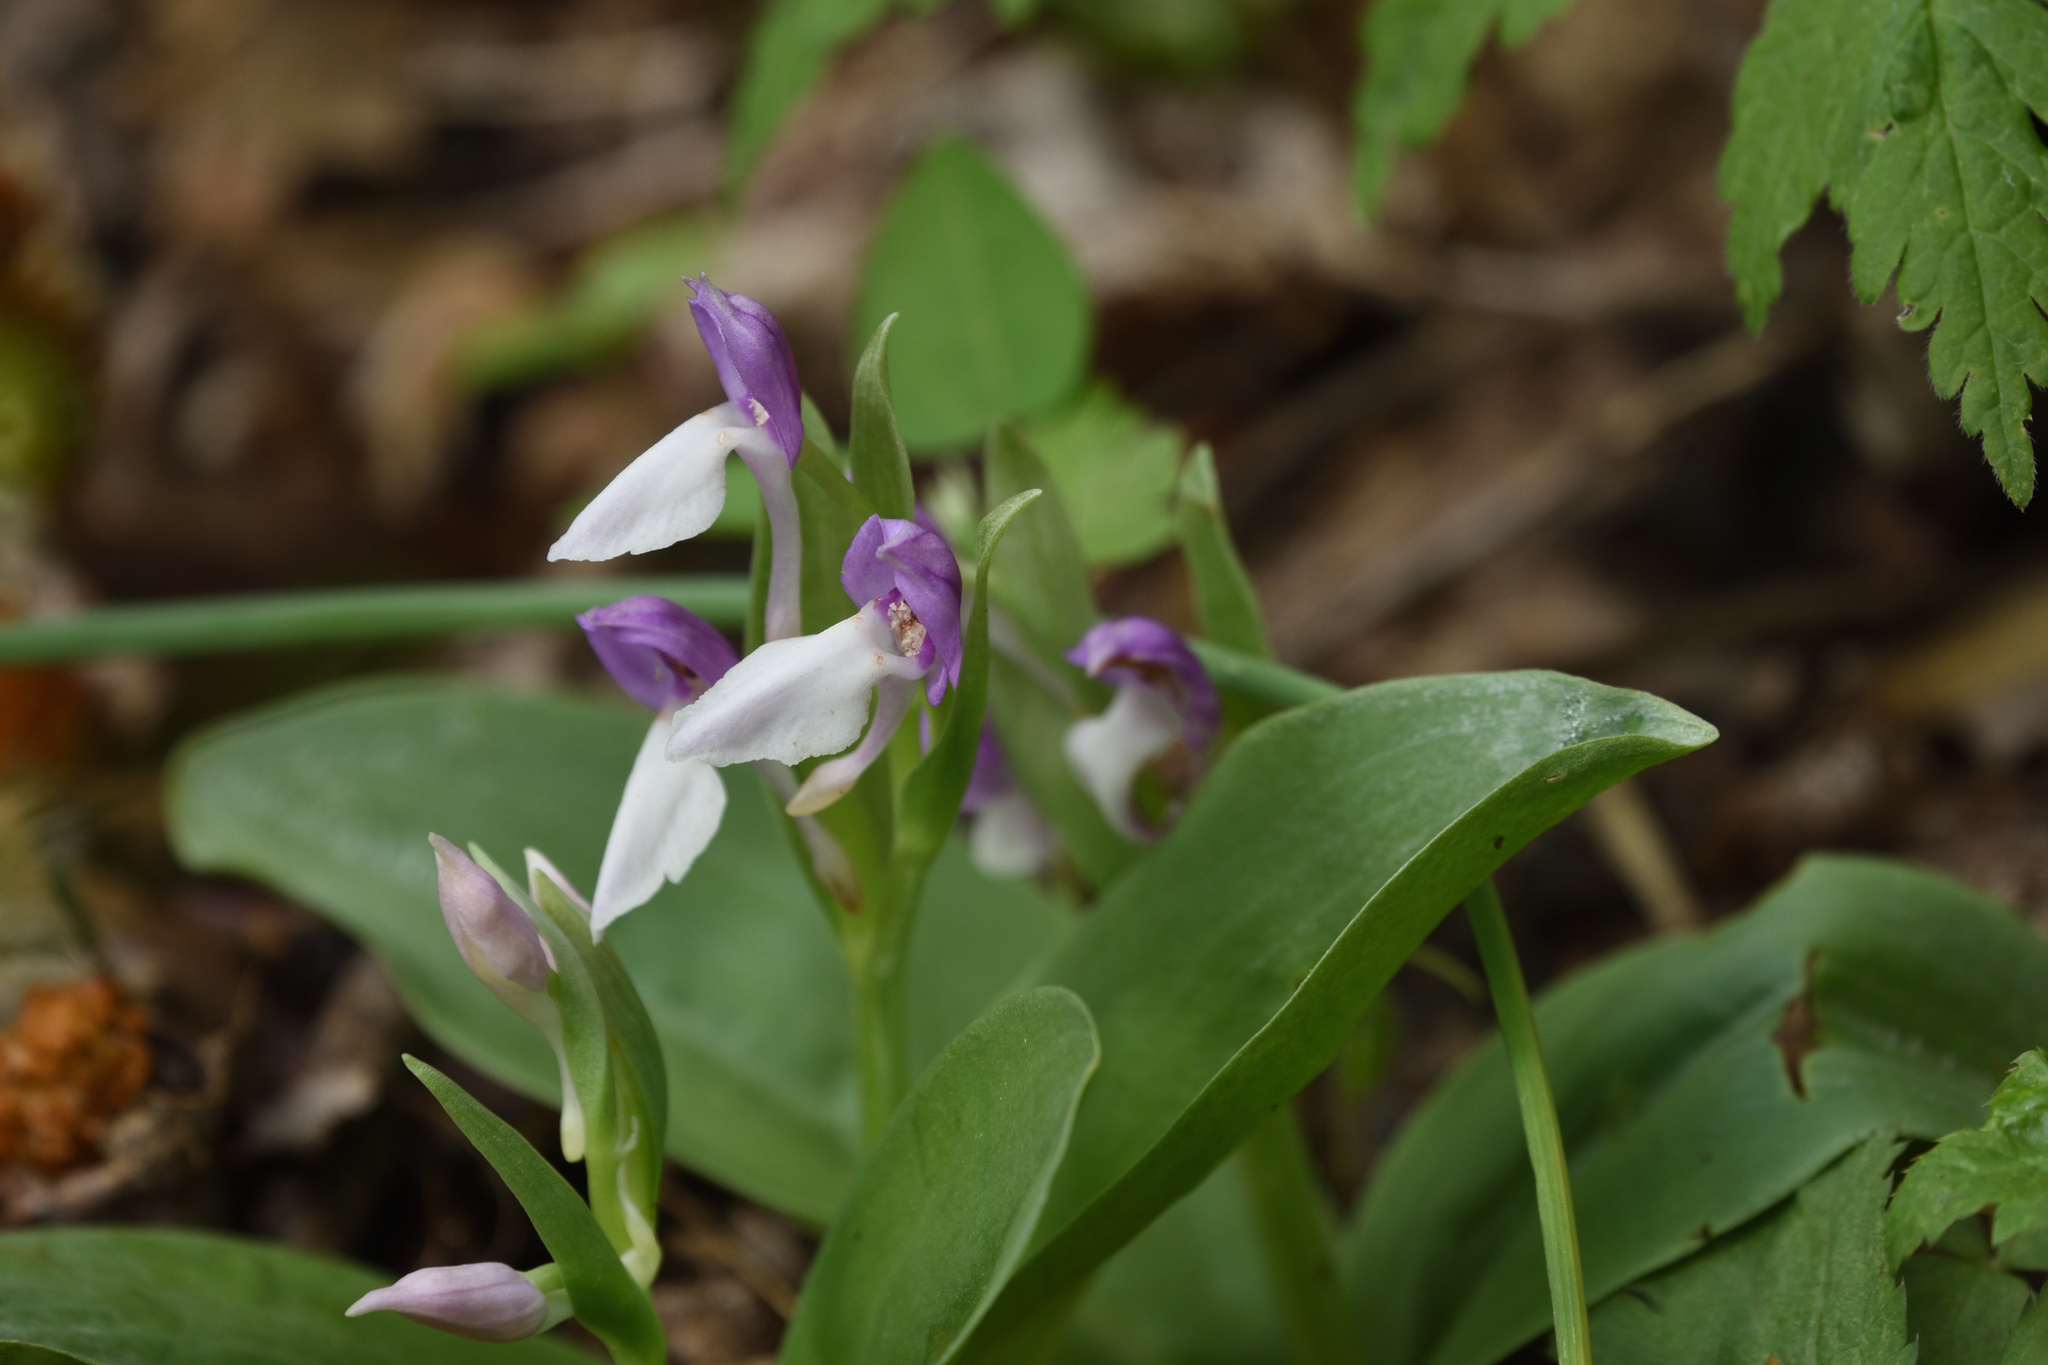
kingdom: Plantae
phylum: Tracheophyta
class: Liliopsida
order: Asparagales
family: Orchidaceae
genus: Galearis
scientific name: Galearis spectabilis
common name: Purple-hooded orchis
